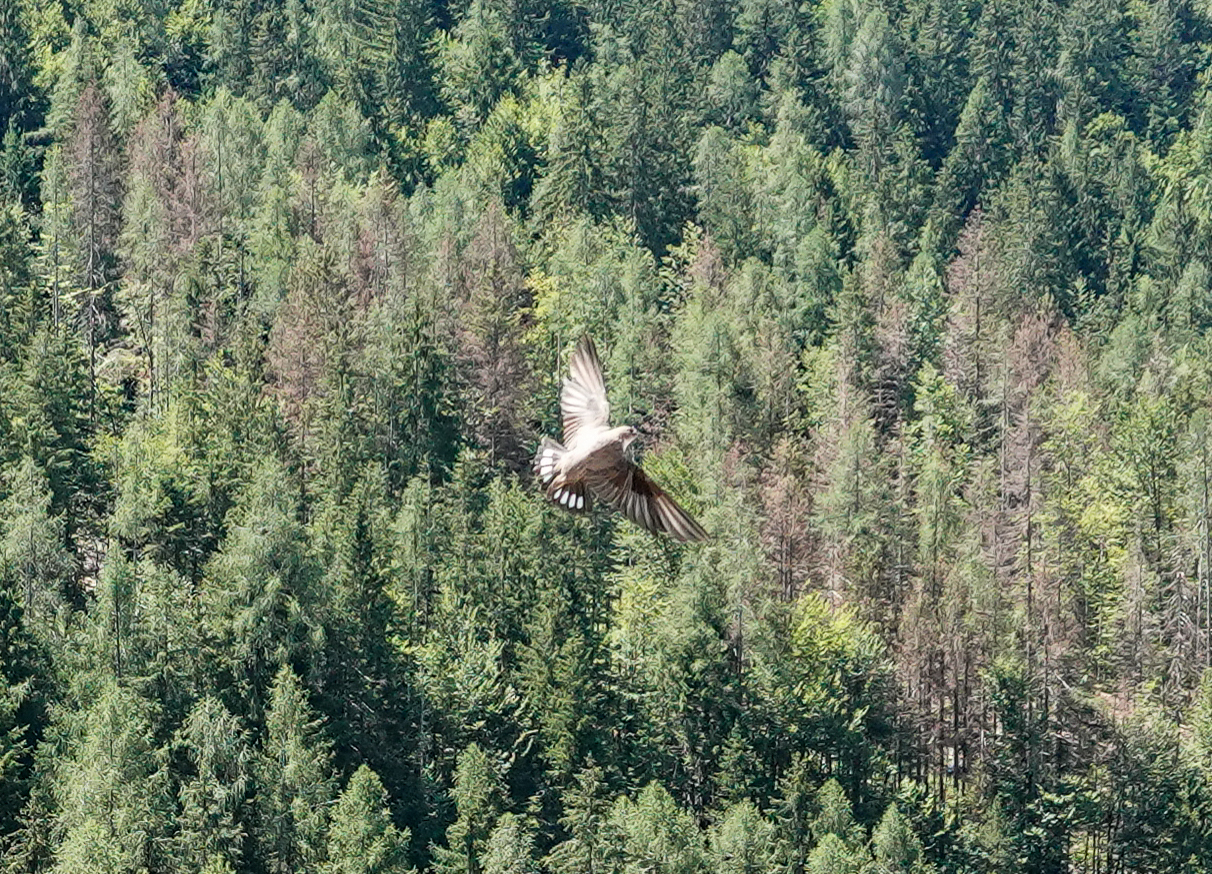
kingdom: Animalia
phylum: Chordata
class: Aves
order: Passeriformes
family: Hirundinidae
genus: Ptyonoprogne
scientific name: Ptyonoprogne rupestris
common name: Eurasian crag martin
